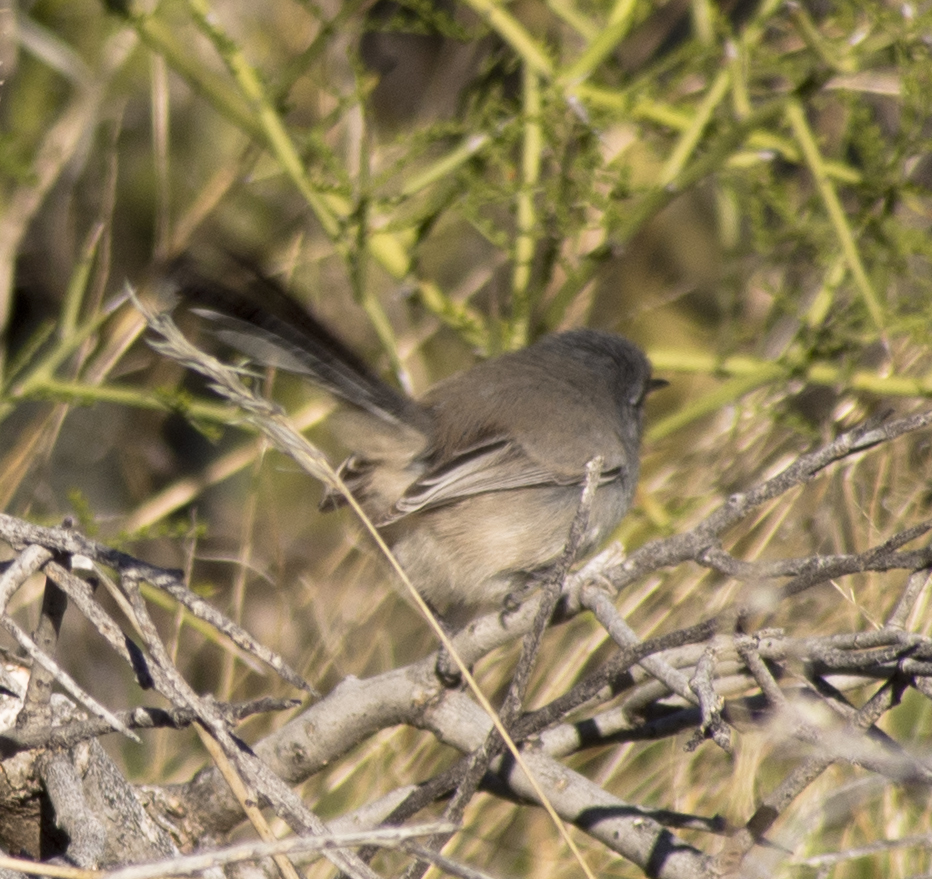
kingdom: Animalia
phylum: Chordata
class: Aves
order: Passeriformes
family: Polioptilidae
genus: Polioptila
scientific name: Polioptila melanura
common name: Black-tailed gnatcatcher
